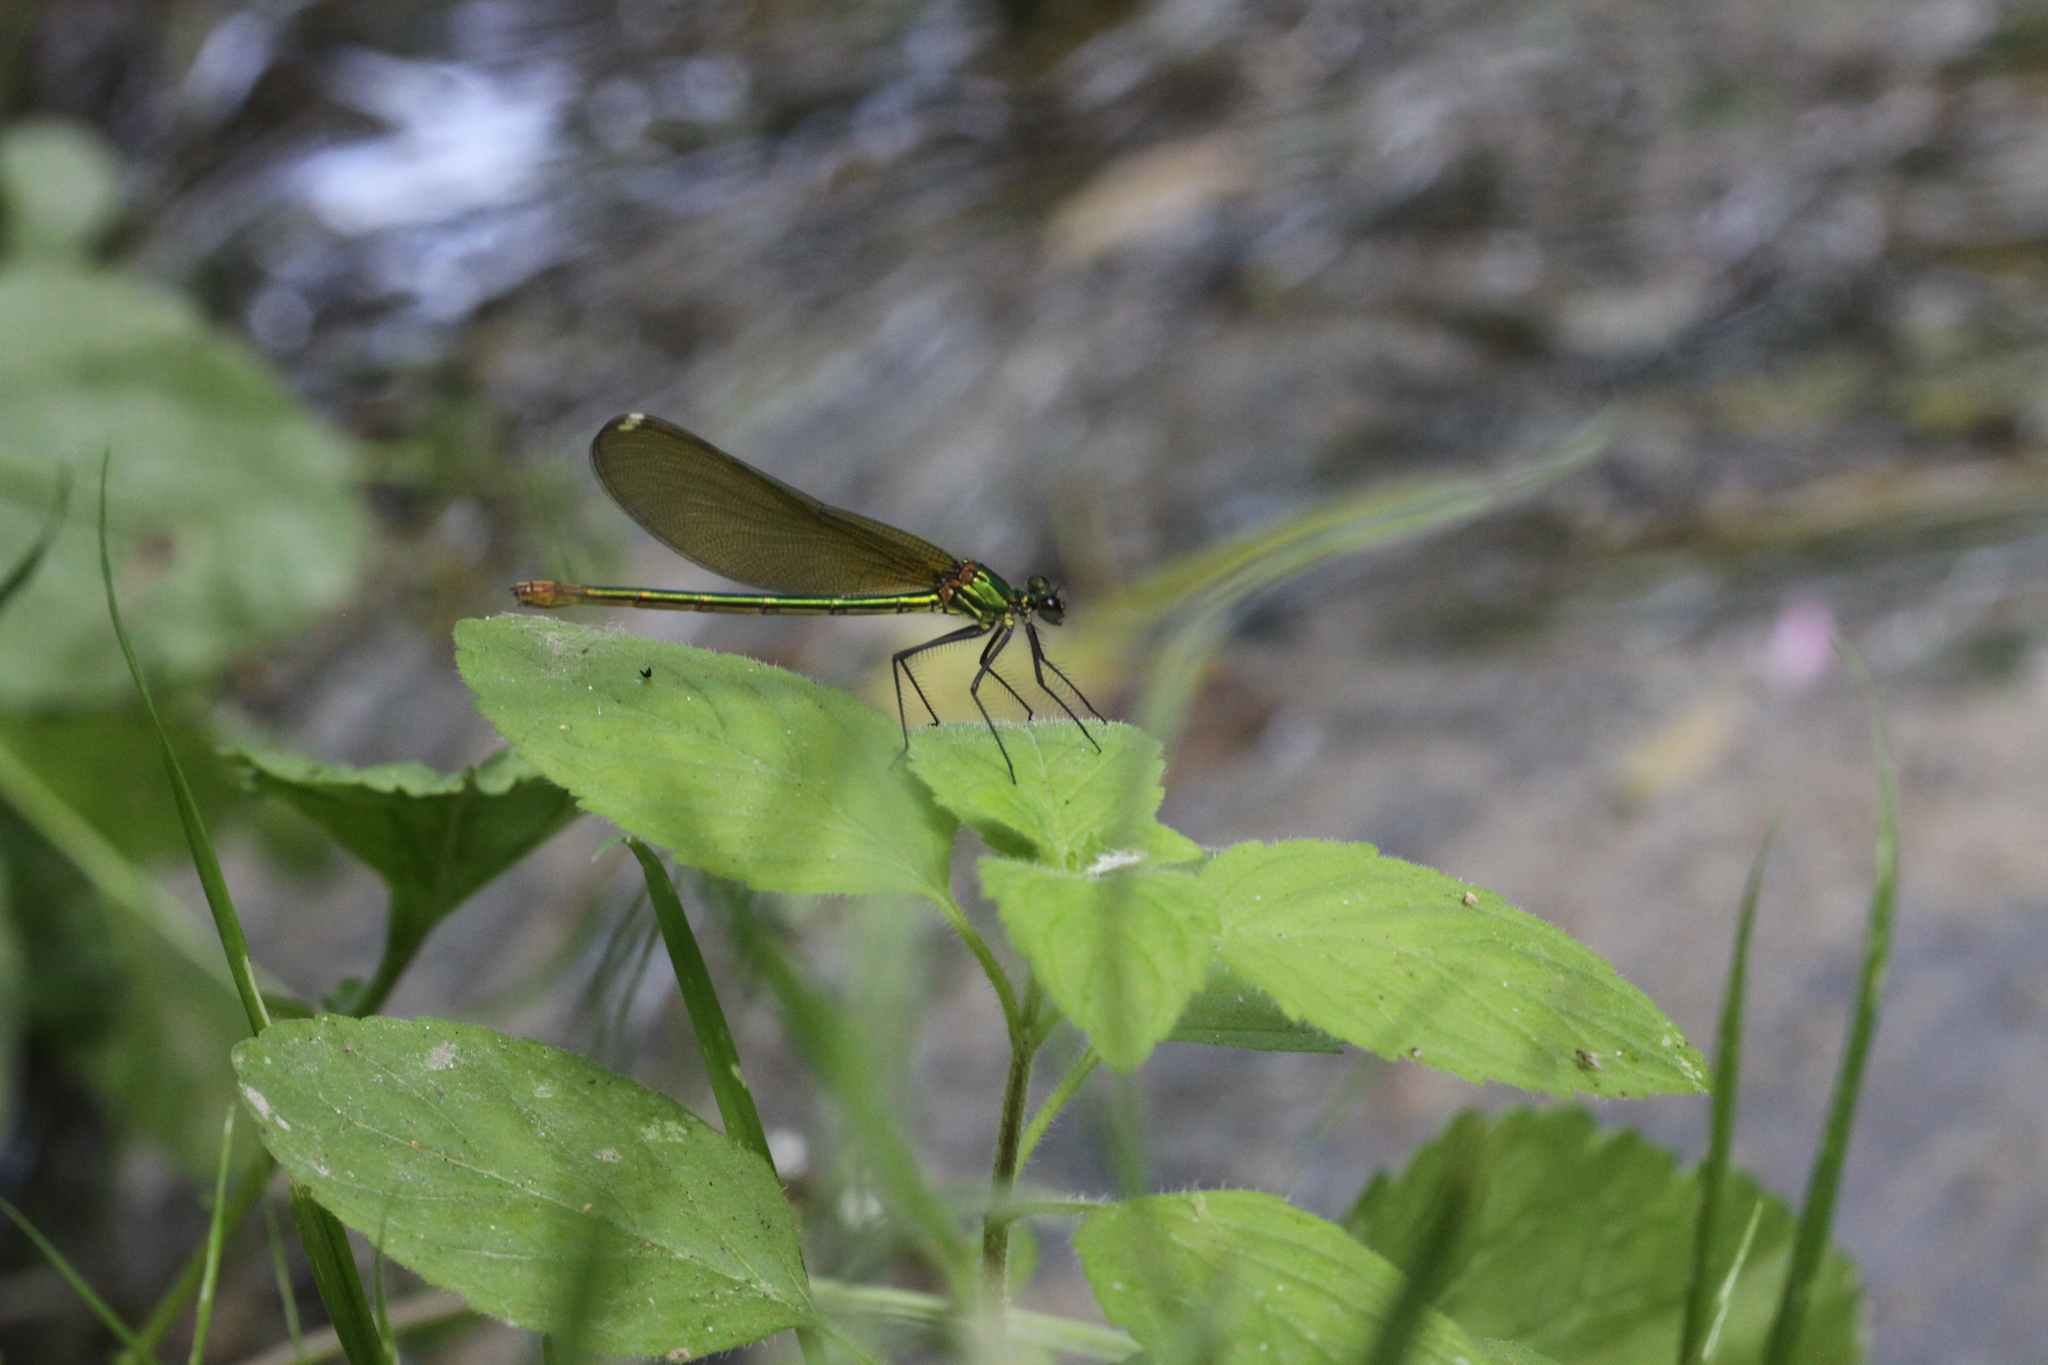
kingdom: Animalia
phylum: Arthropoda
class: Insecta
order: Odonata
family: Calopterygidae
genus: Calopteryx
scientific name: Calopteryx xanthostoma
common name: Western demoiselle
